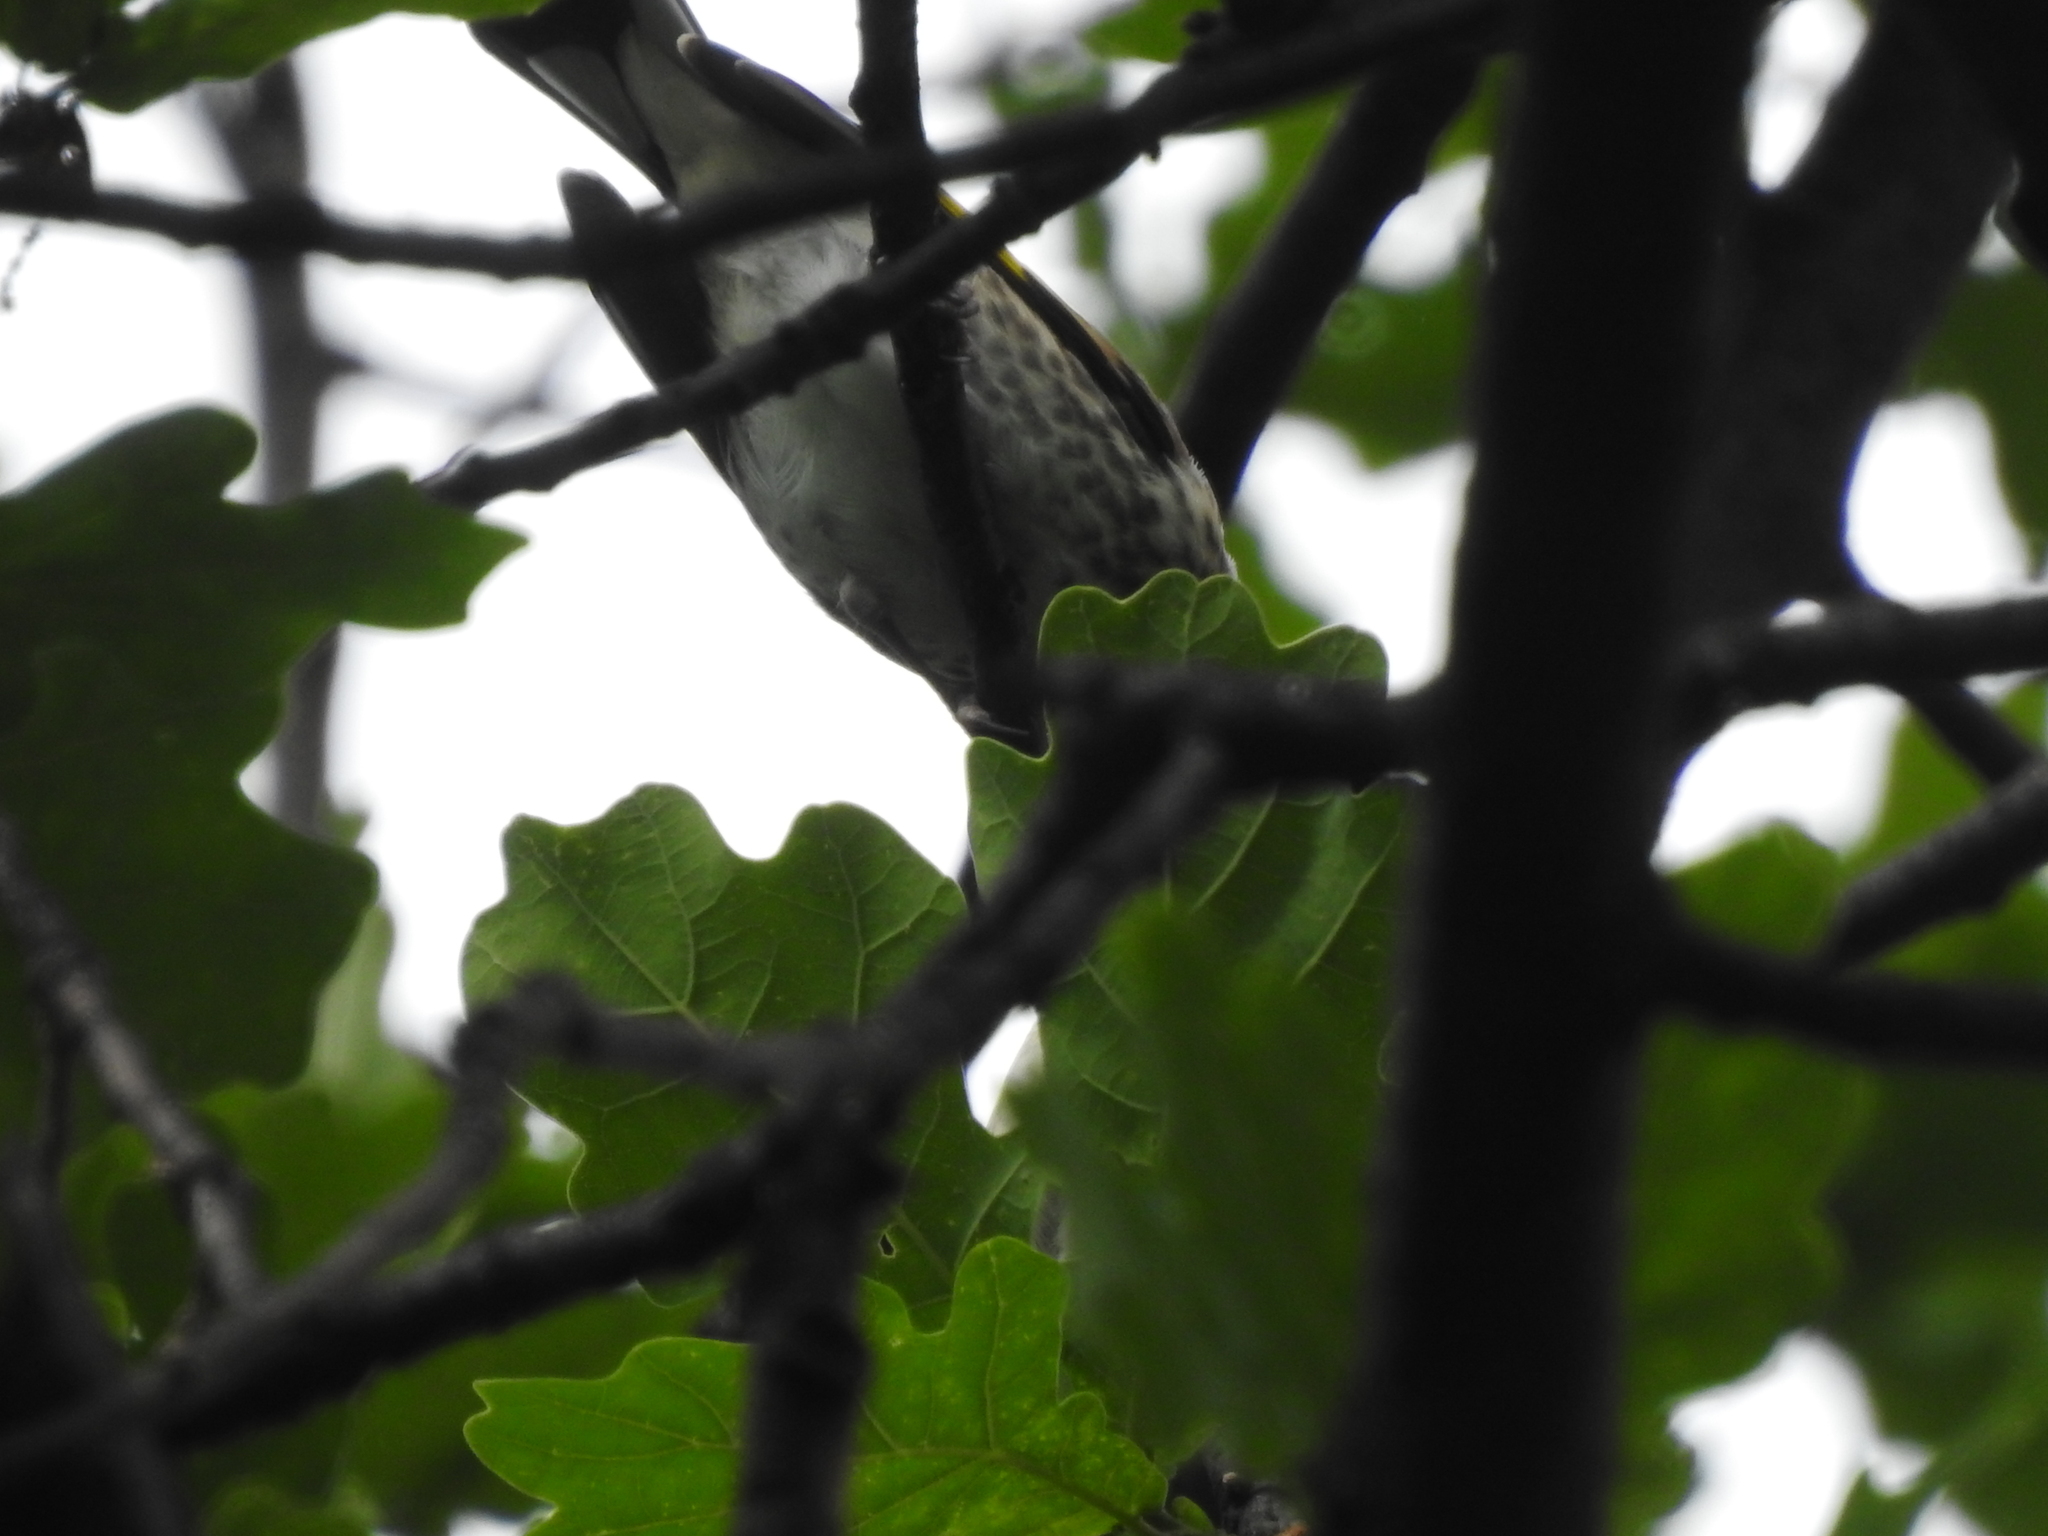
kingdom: Animalia
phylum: Chordata
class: Aves
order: Passeriformes
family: Fringillidae
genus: Carduelis
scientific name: Carduelis carduelis
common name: European goldfinch
